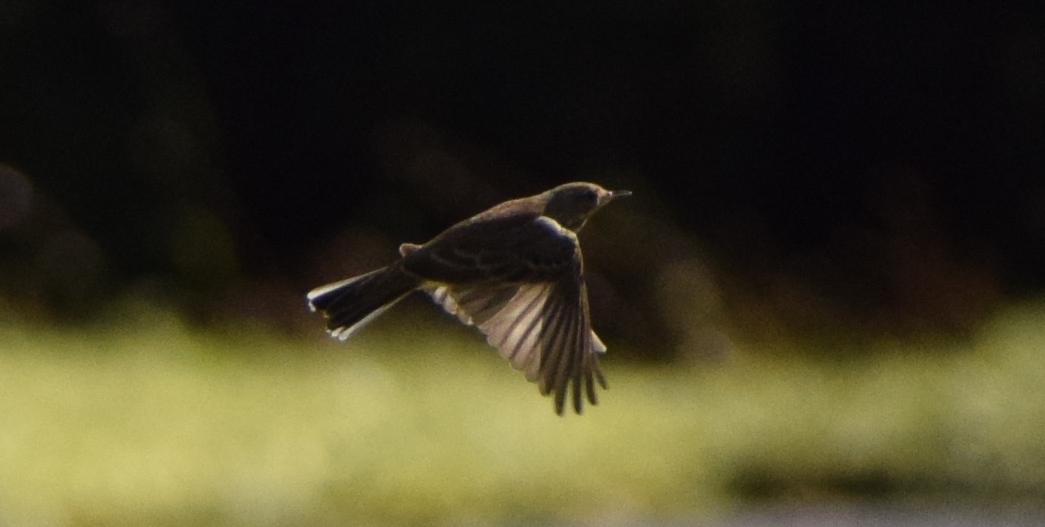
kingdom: Animalia
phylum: Chordata
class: Aves
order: Passeriformes
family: Motacillidae
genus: Anthus
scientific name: Anthus spinoletta
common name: Water pipit
